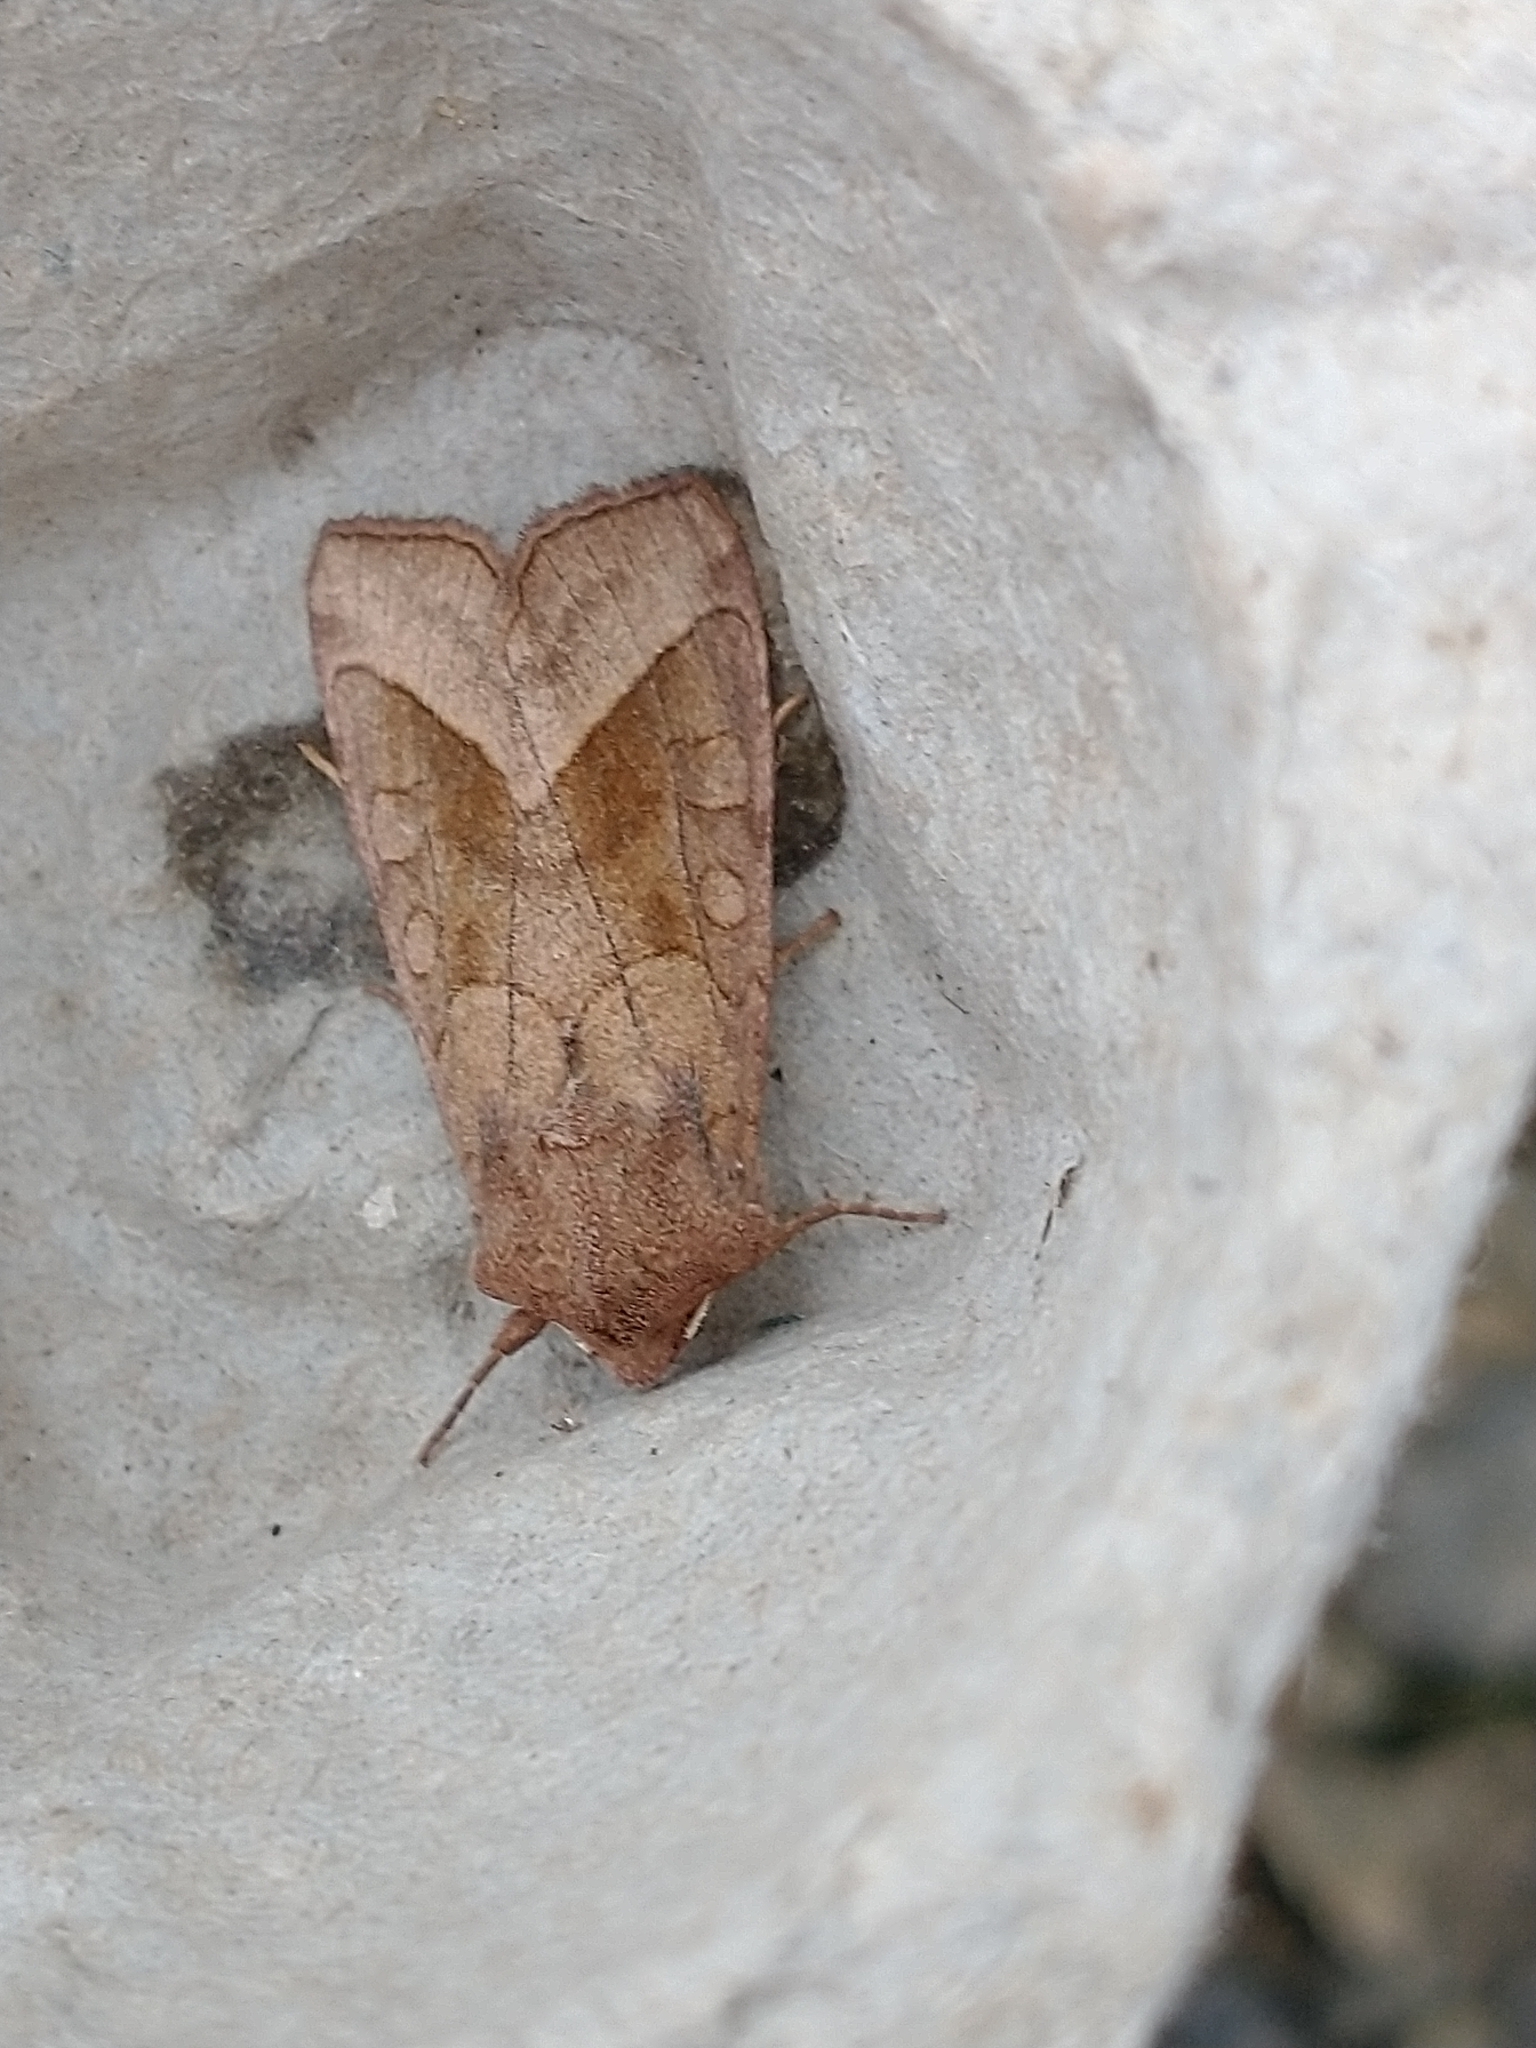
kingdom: Animalia
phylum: Arthropoda
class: Insecta
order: Lepidoptera
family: Noctuidae
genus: Hydraecia
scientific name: Hydraecia micacea
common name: Rosy rustic
